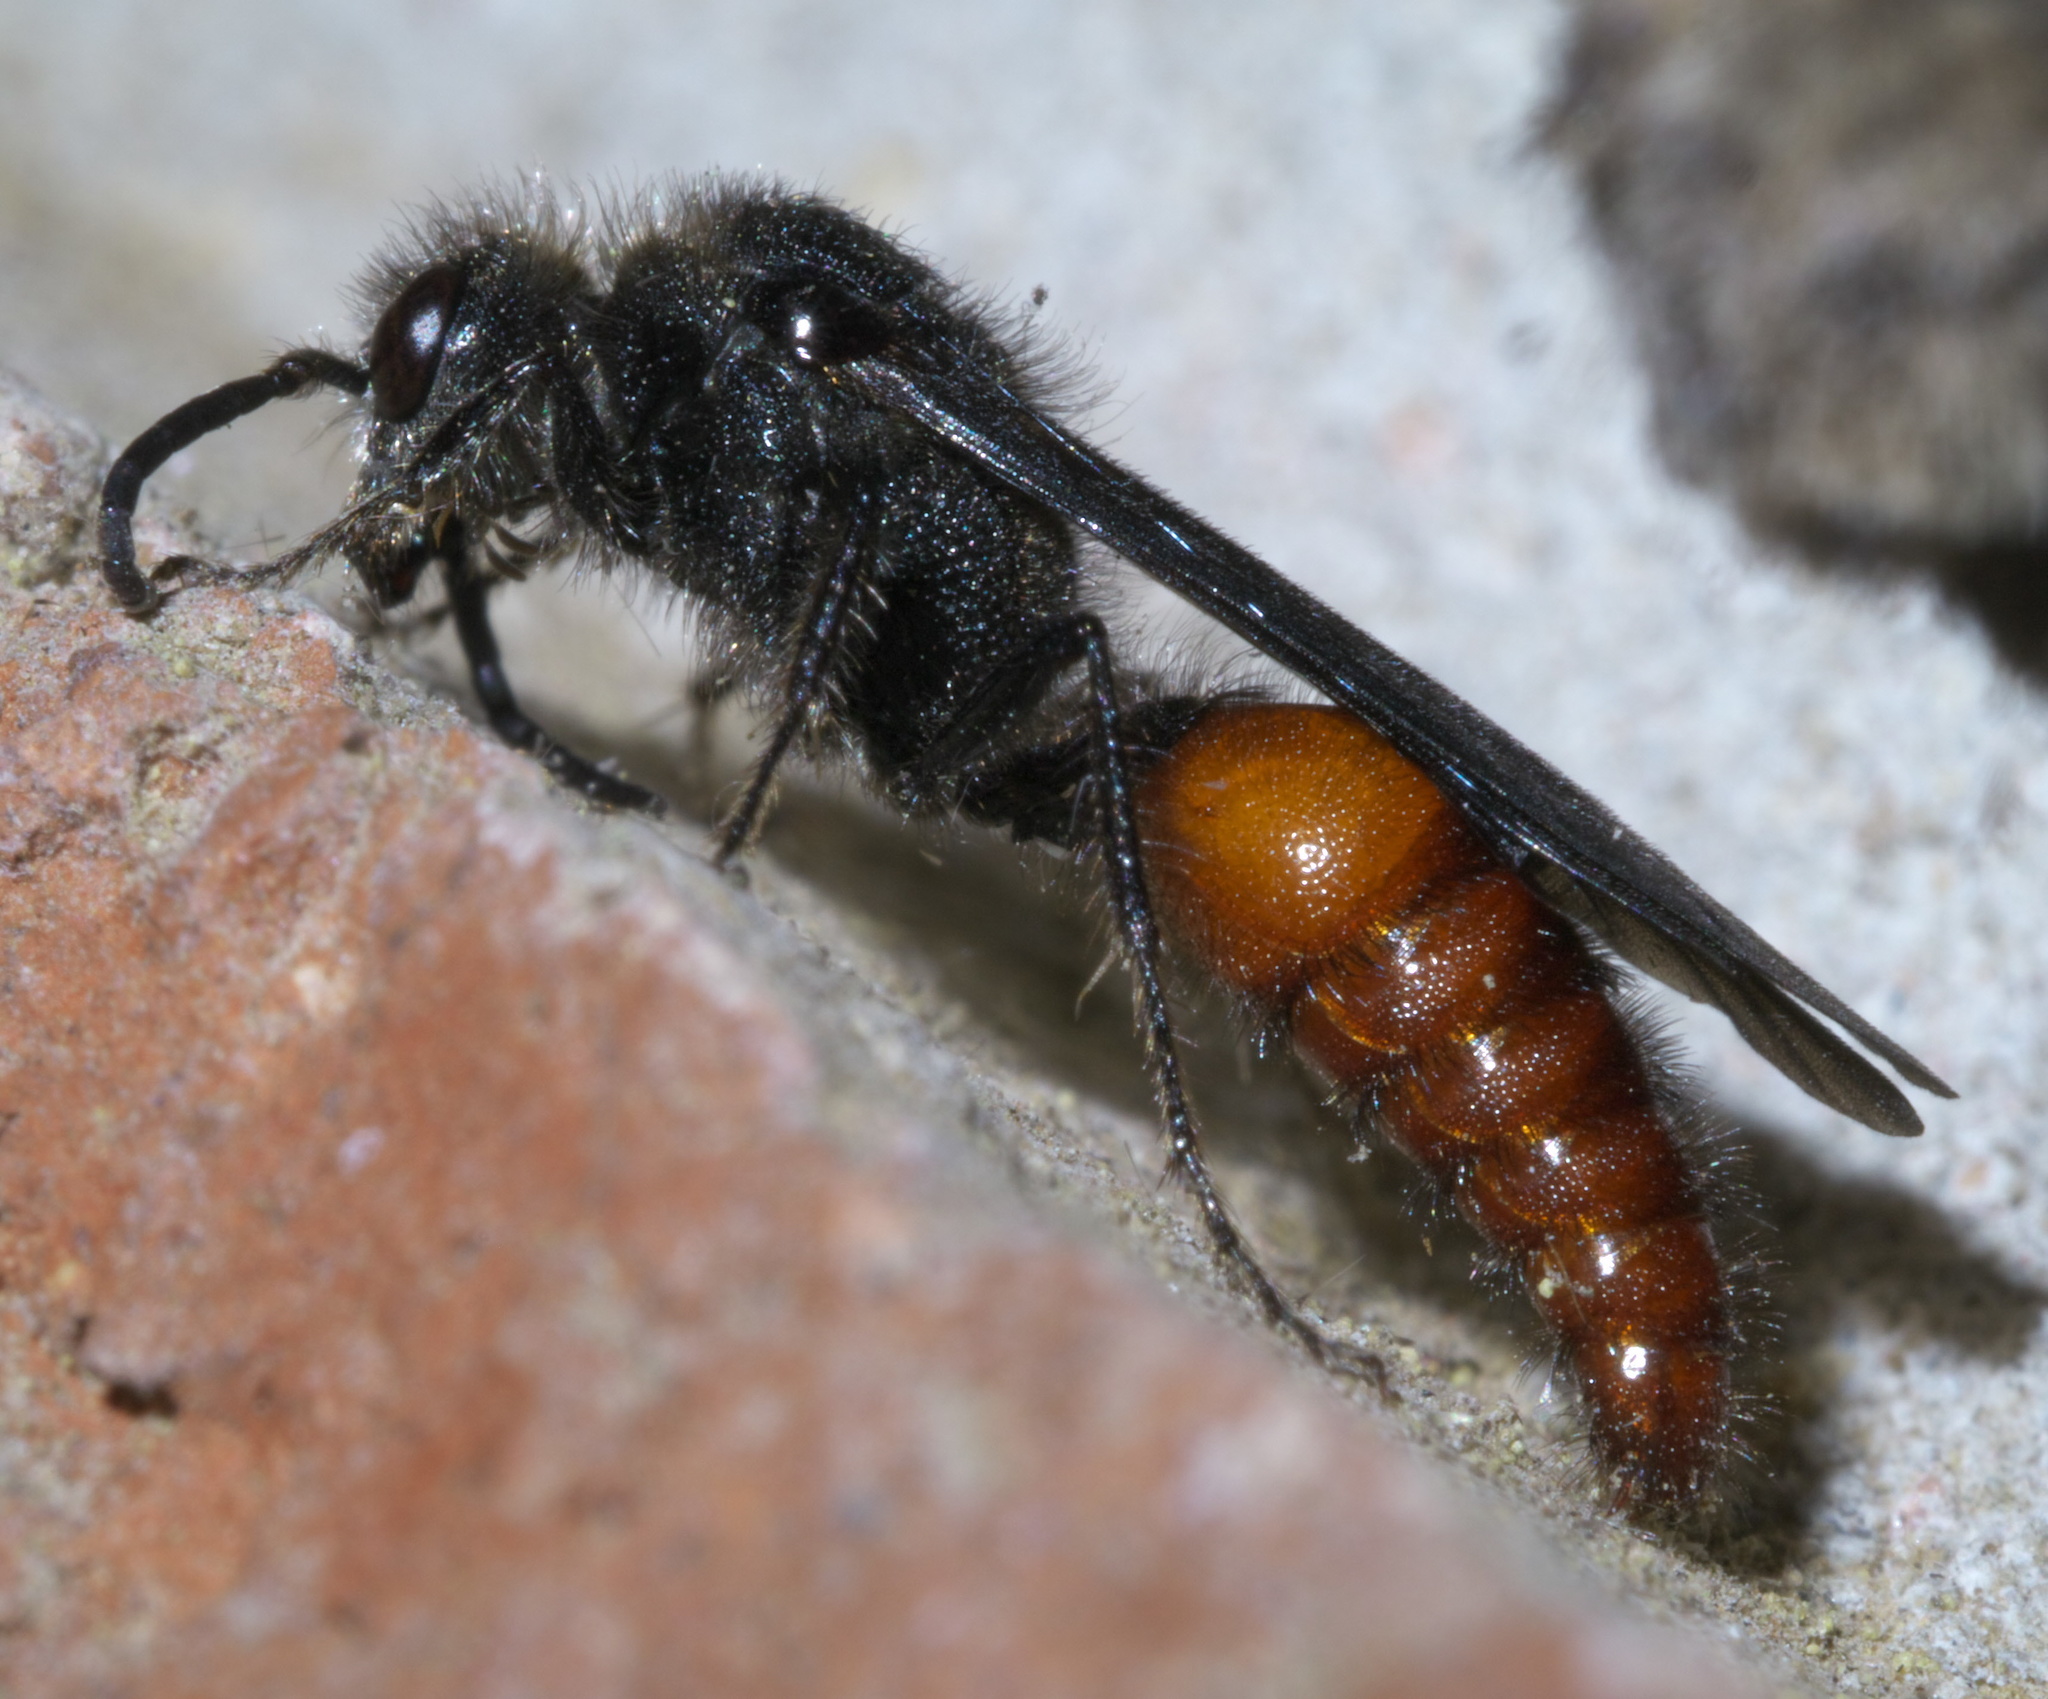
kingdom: Animalia
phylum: Arthropoda
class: Insecta
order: Hymenoptera
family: Mutillidae
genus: Timulla
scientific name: Timulla
